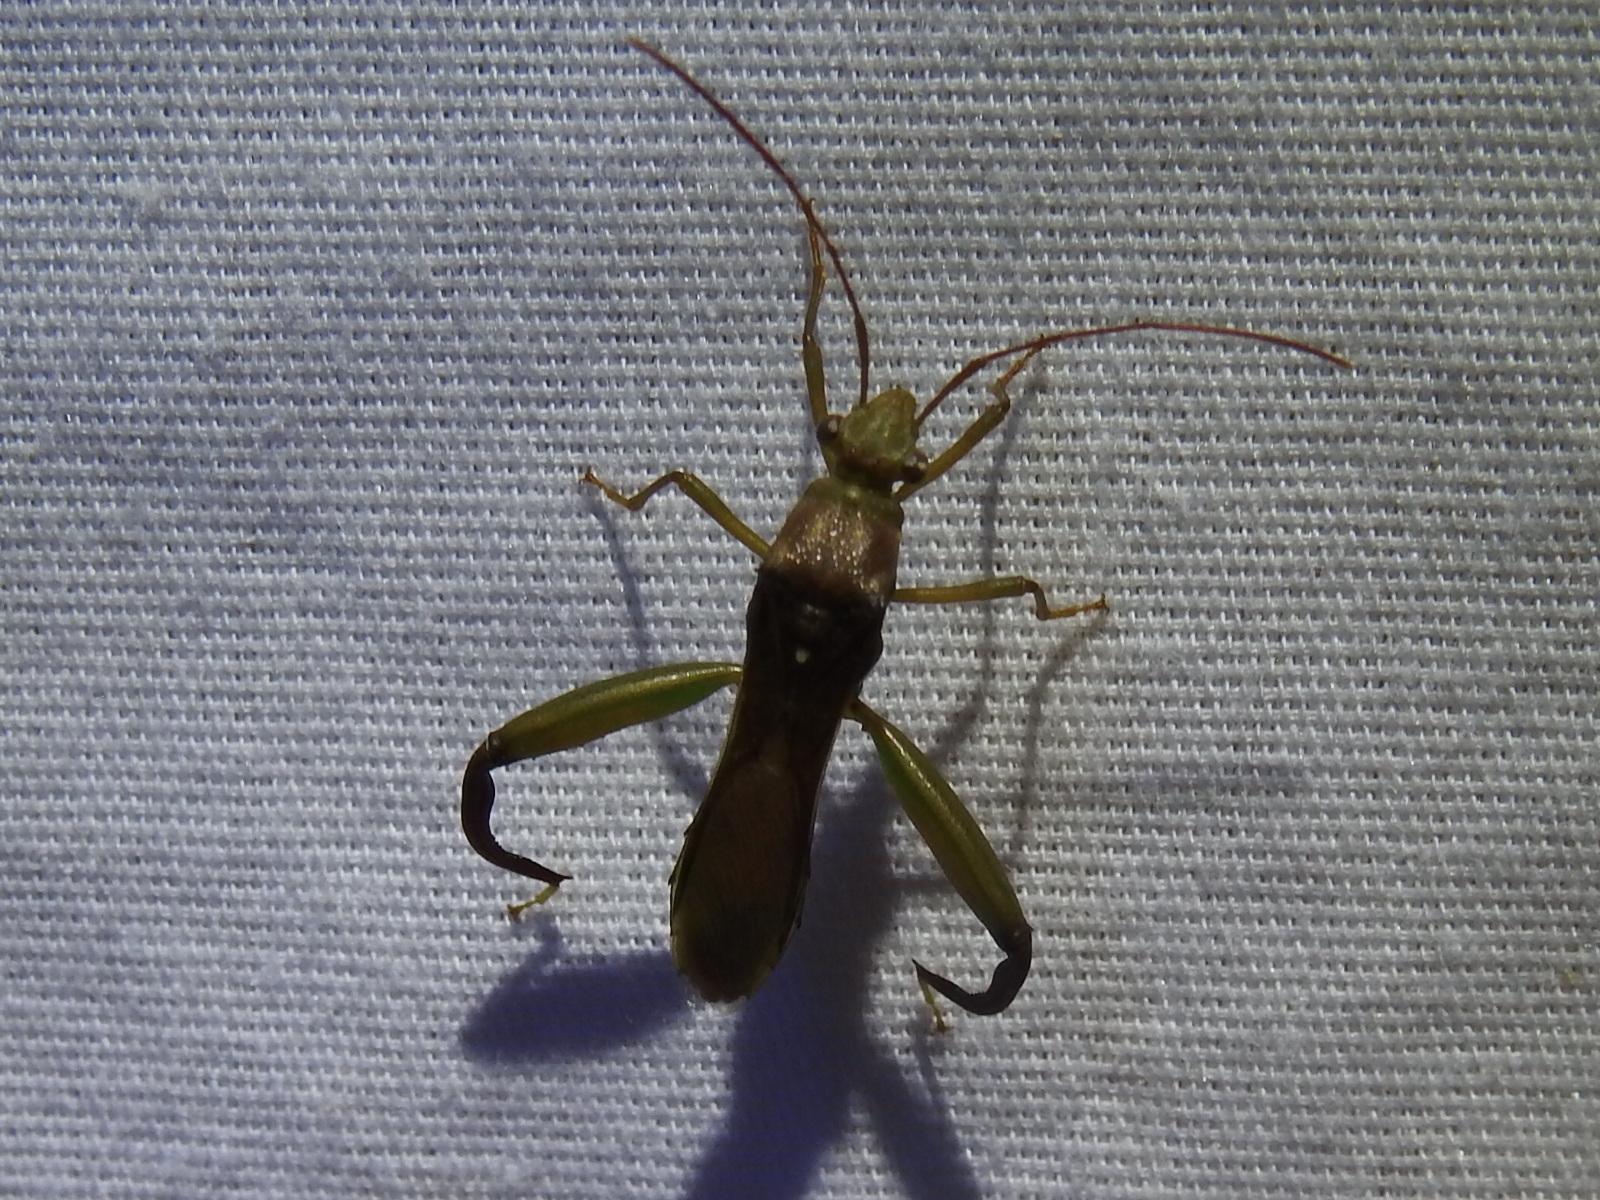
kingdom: Animalia
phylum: Arthropoda
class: Insecta
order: Hemiptera
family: Alydidae
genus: Hyalymenus
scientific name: Hyalymenus tarsatus
